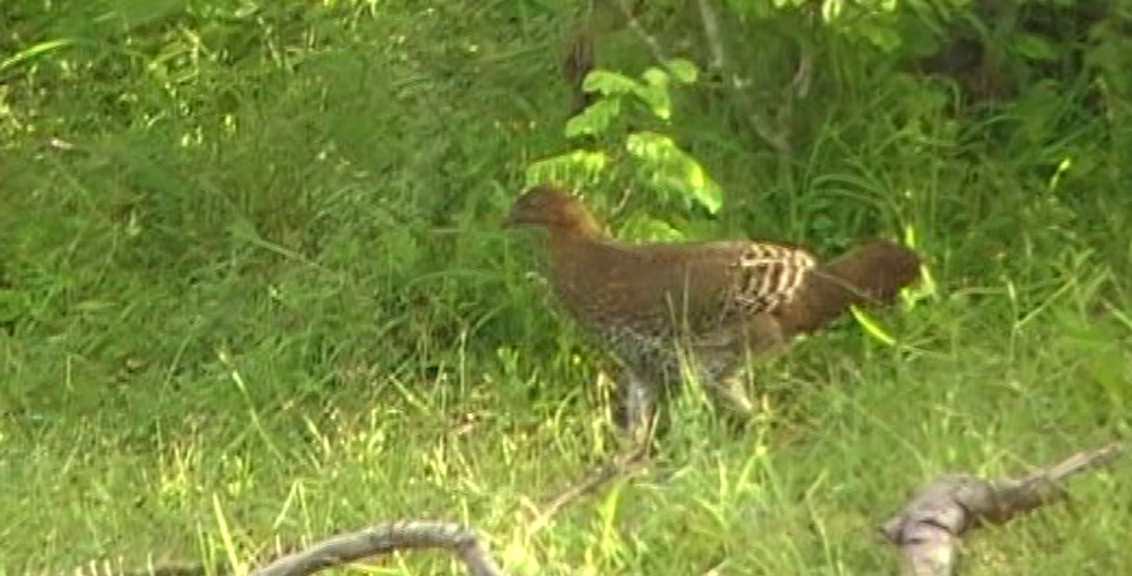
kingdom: Animalia
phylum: Chordata
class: Aves
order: Galliformes
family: Phasianidae
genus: Gallus
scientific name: Gallus lafayettii
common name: Sri lanka junglefowl
